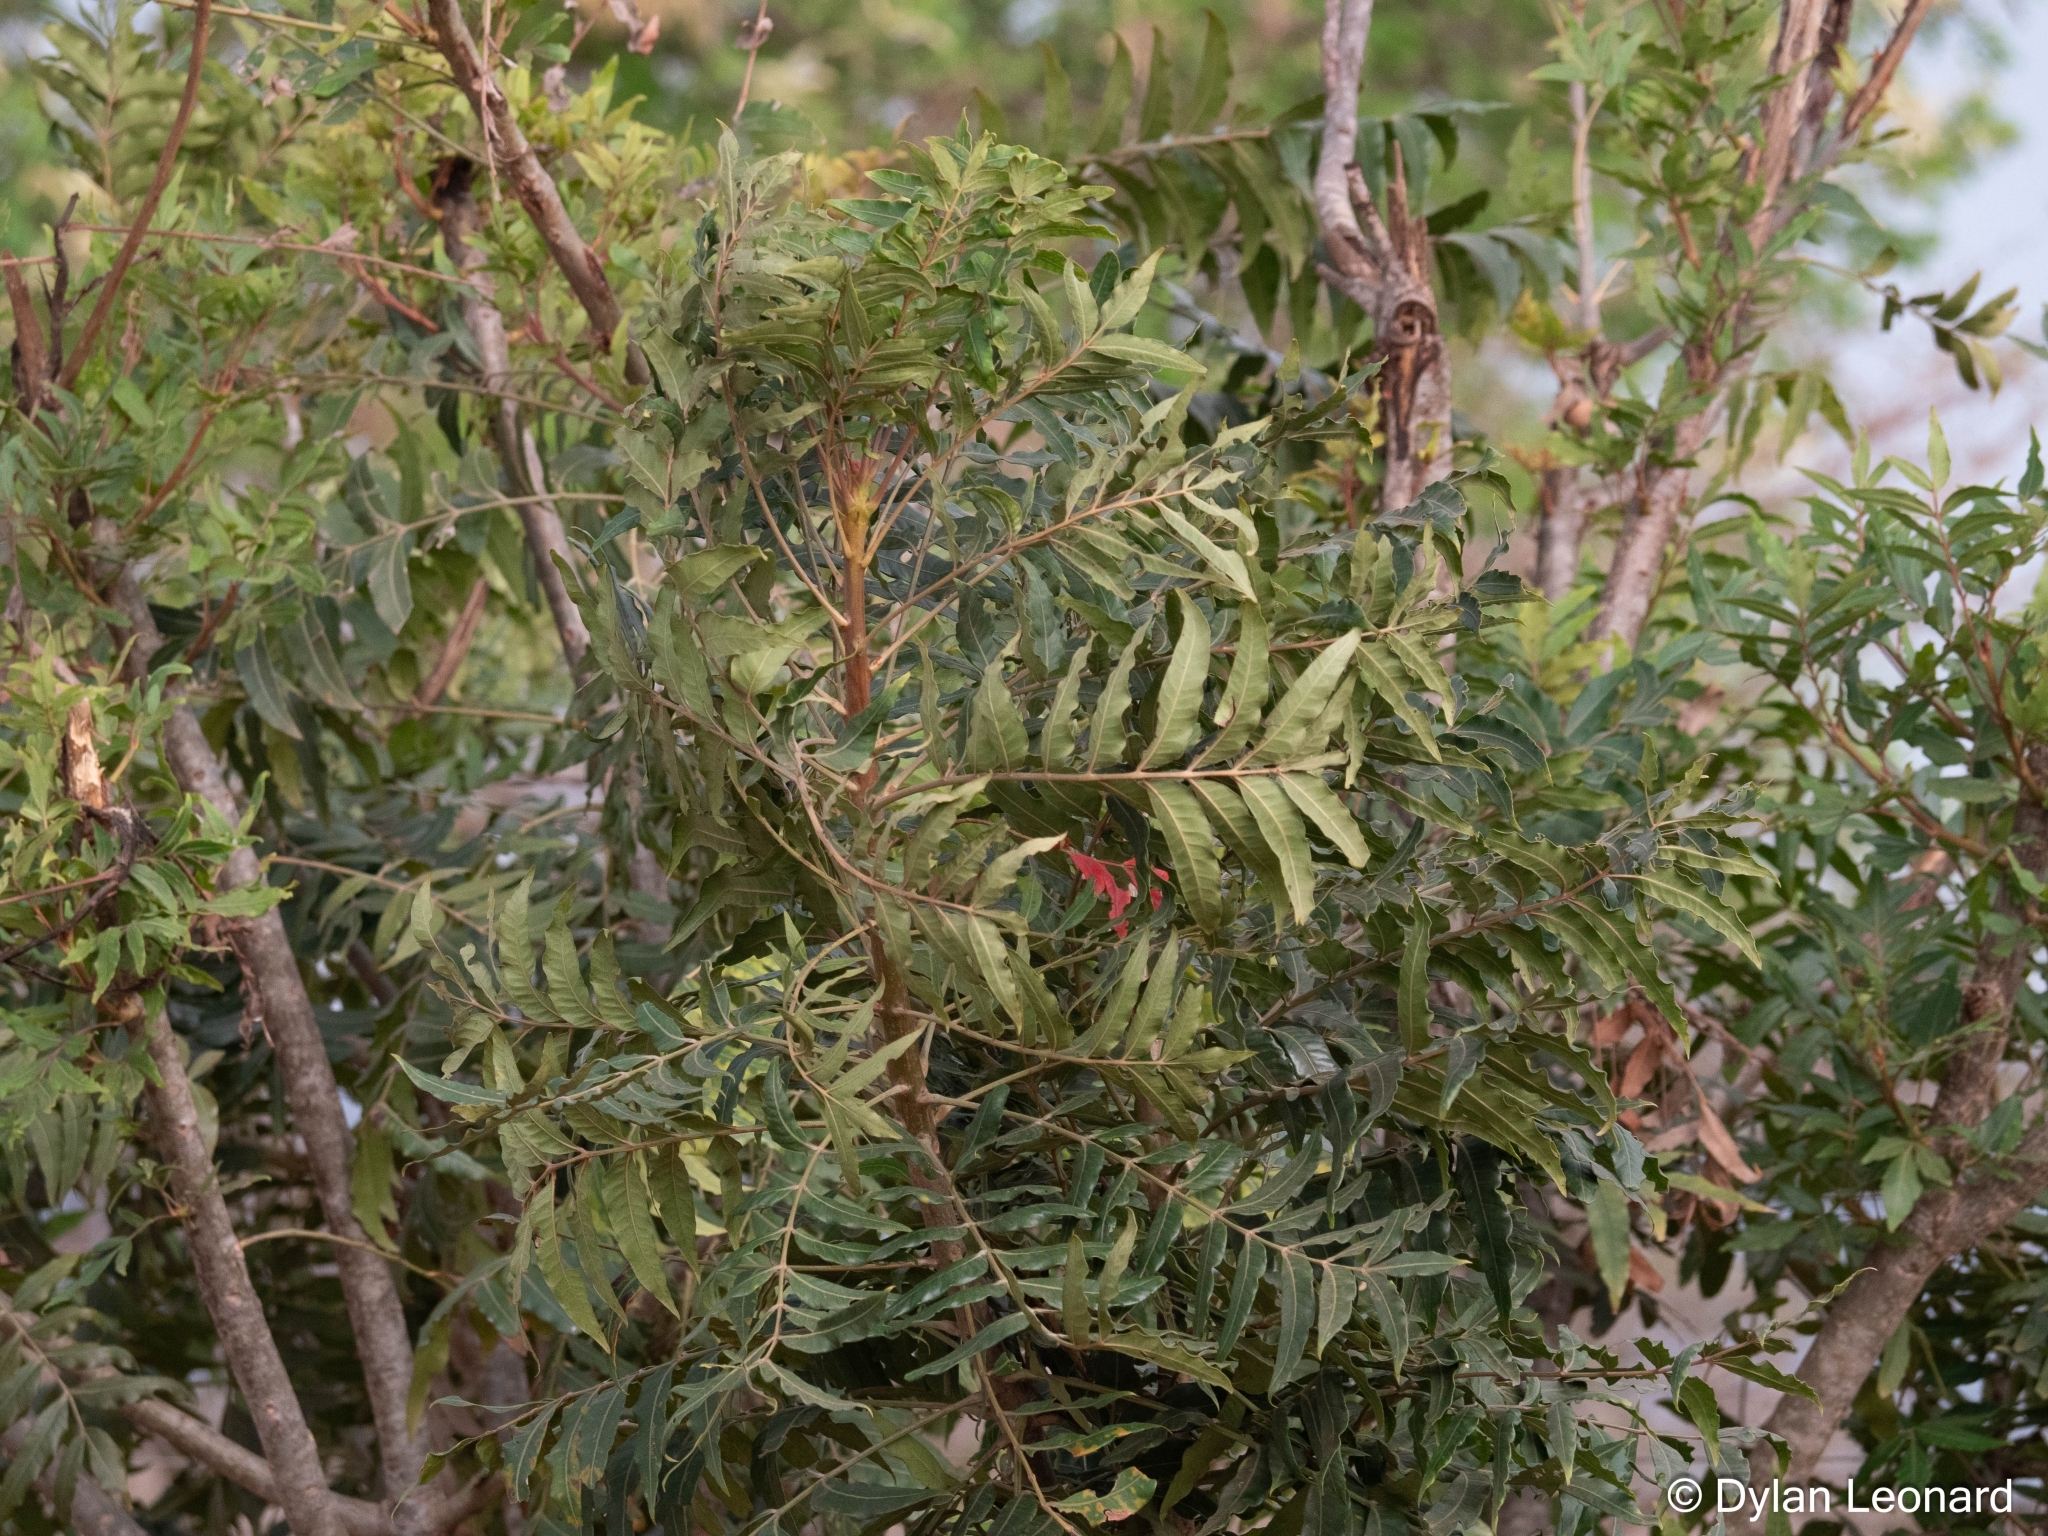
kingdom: Plantae
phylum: Tracheophyta
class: Magnoliopsida
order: Sapindales
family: Anacardiaceae
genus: Harpephyllum
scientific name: Harpephyllum caffrum
